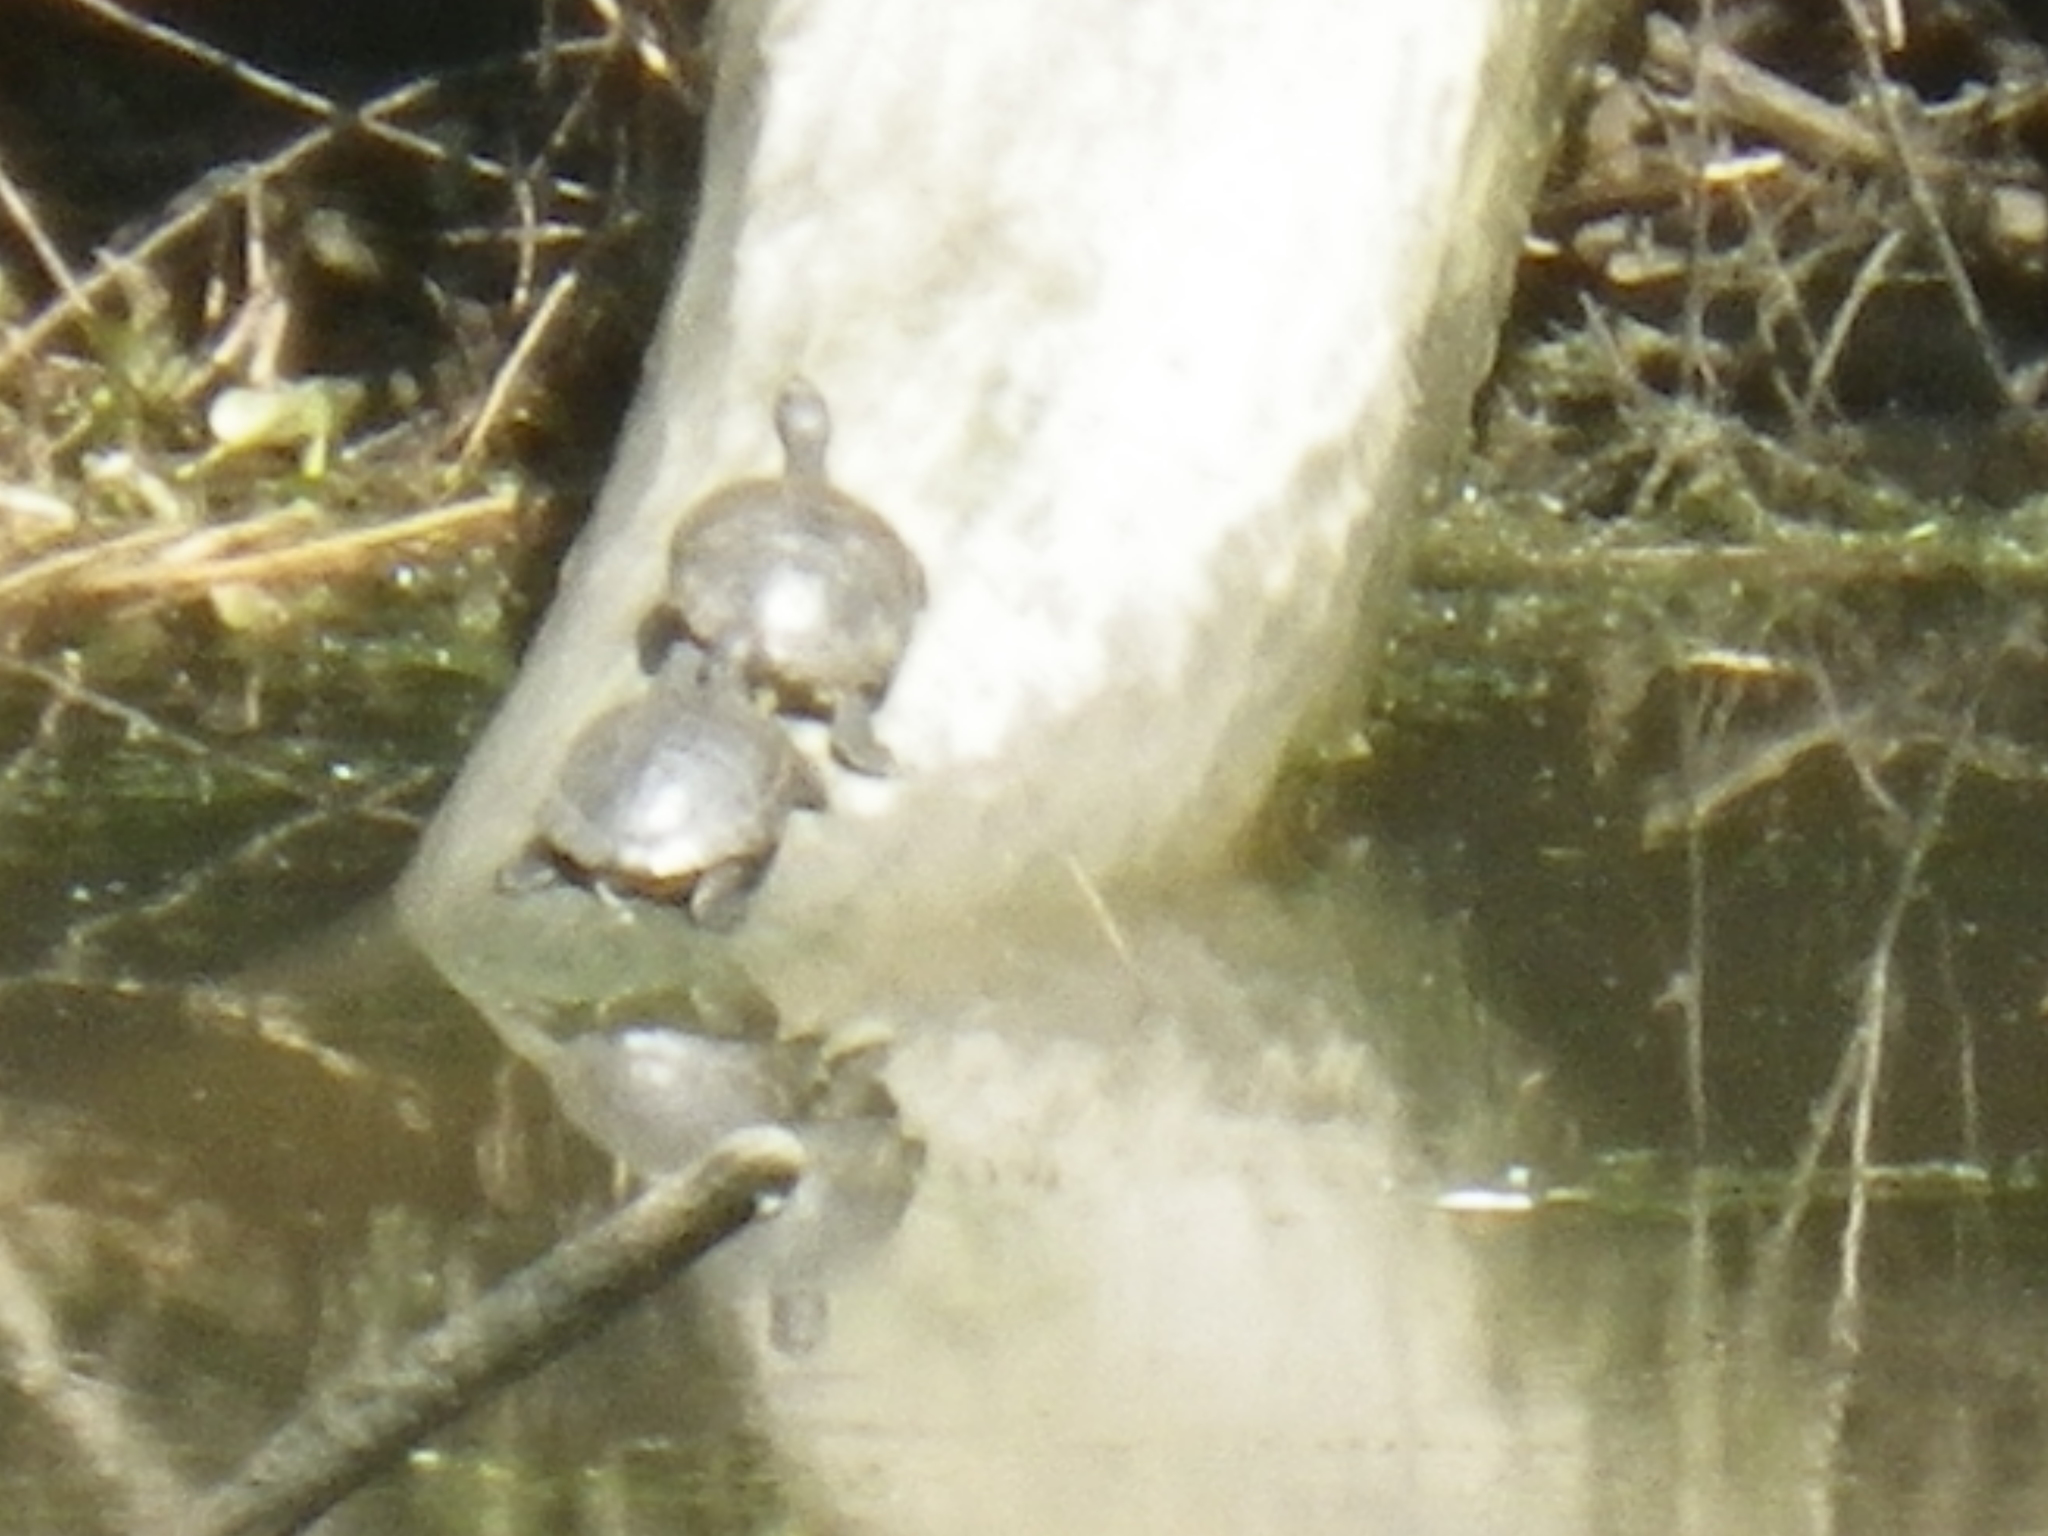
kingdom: Animalia
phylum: Chordata
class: Testudines
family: Emydidae
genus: Actinemys
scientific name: Actinemys marmorata
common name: Western pond turtle
